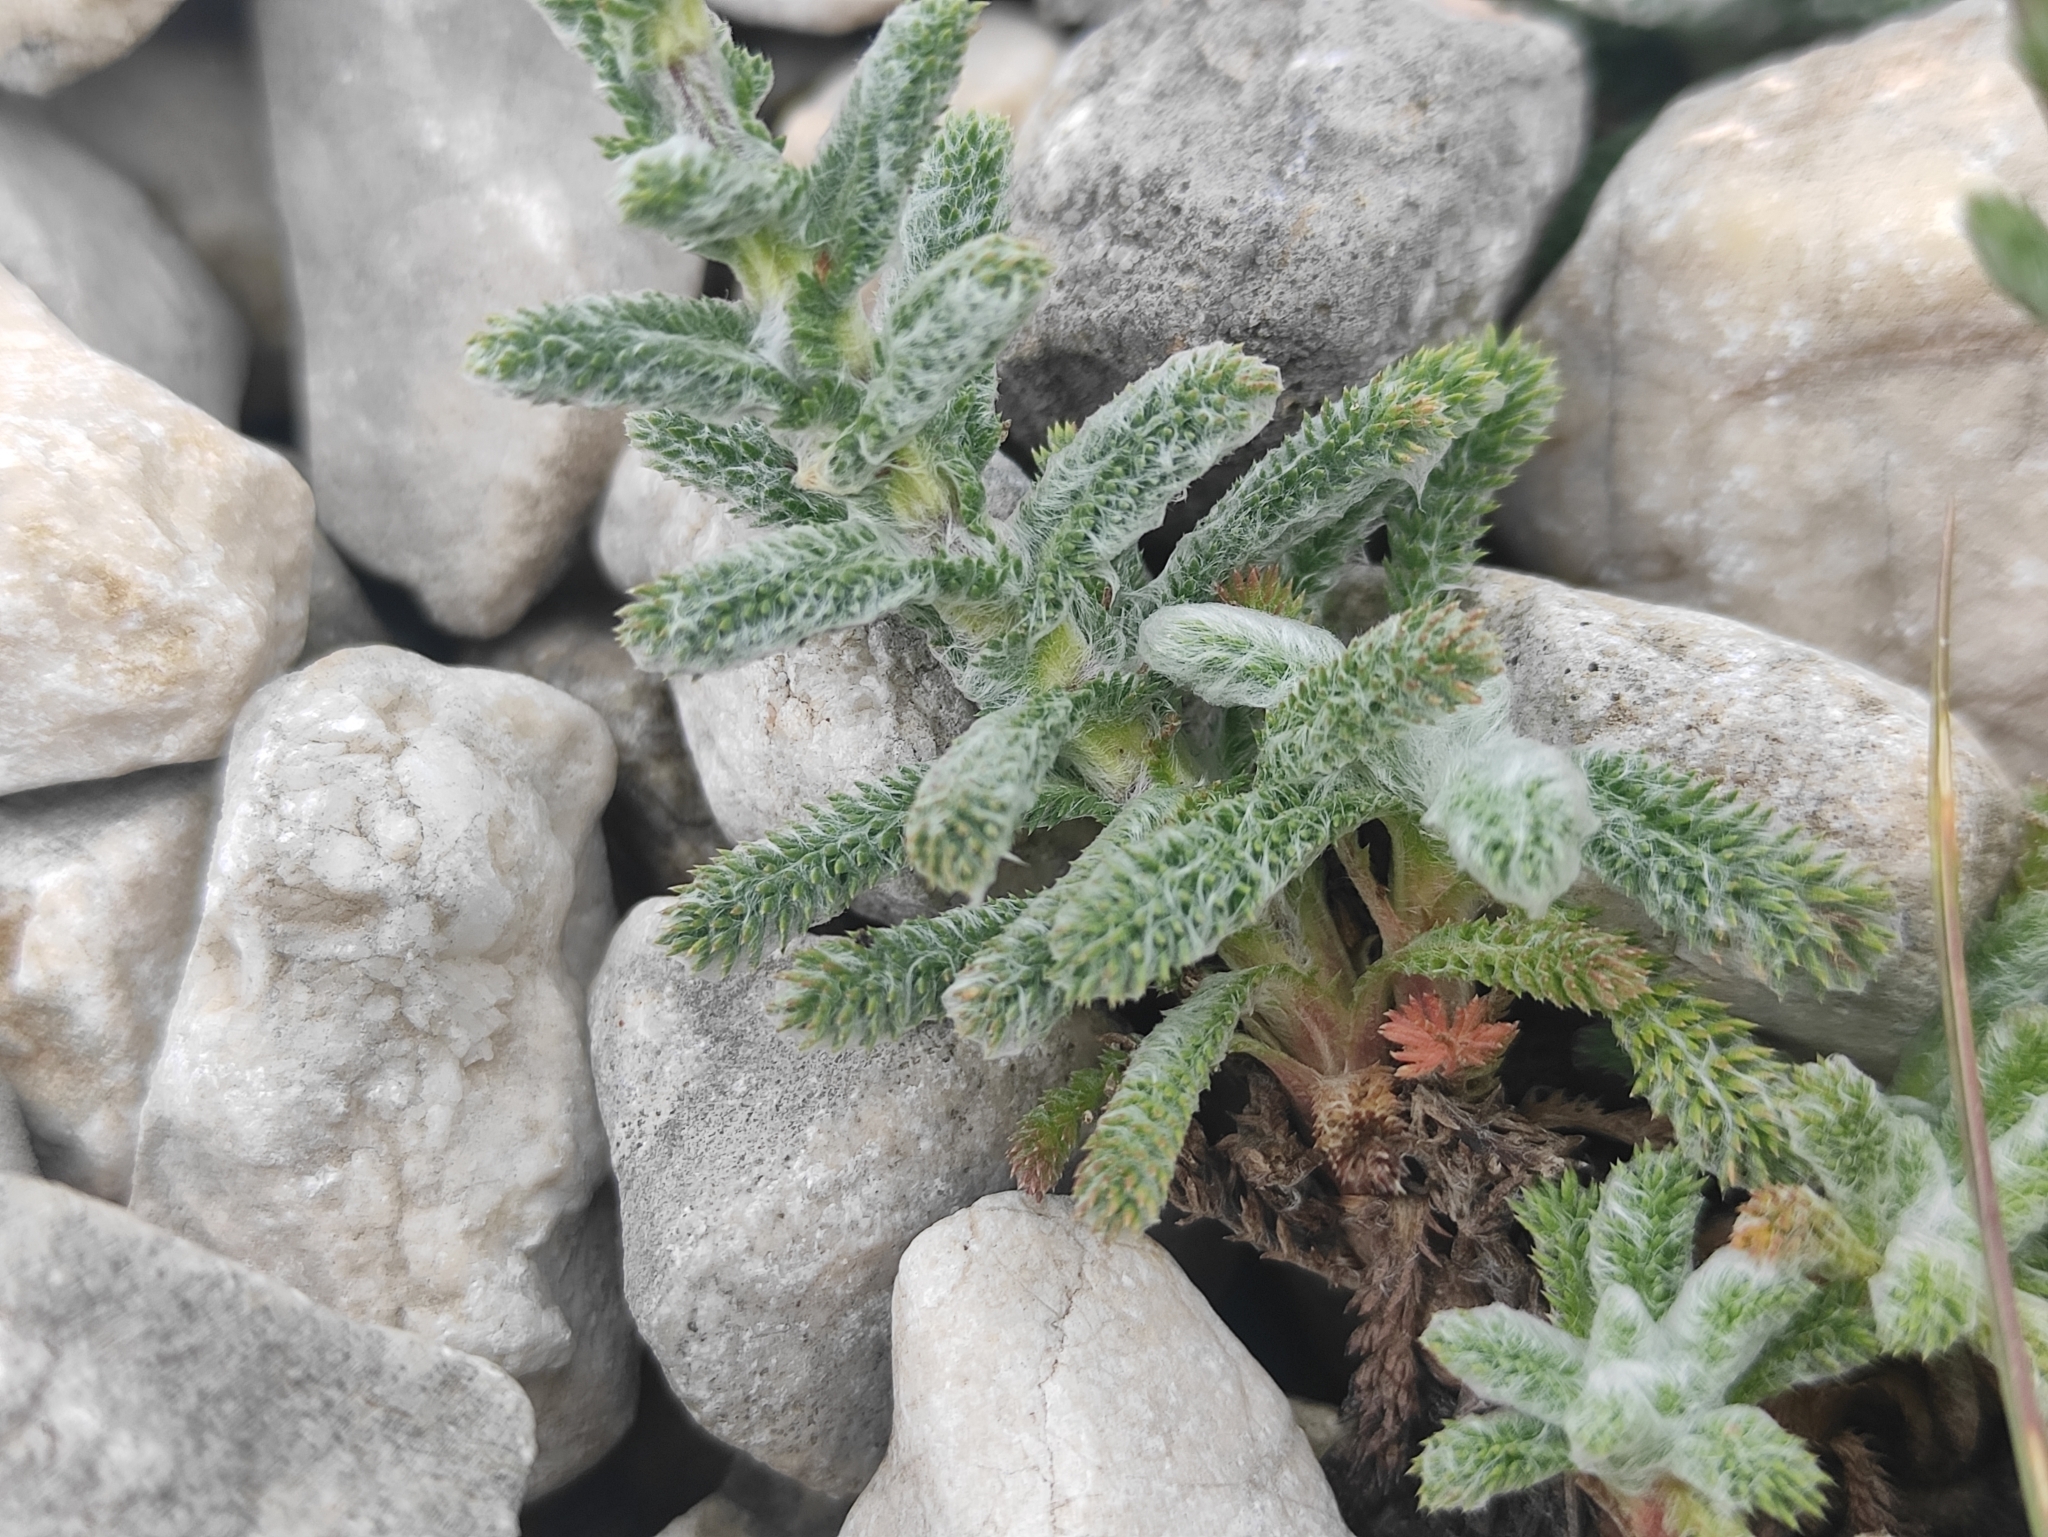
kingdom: Plantae
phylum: Tracheophyta
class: Magnoliopsida
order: Asterales
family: Asteraceae
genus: Achillea
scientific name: Achillea tomentosa
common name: Yellow milfoil
